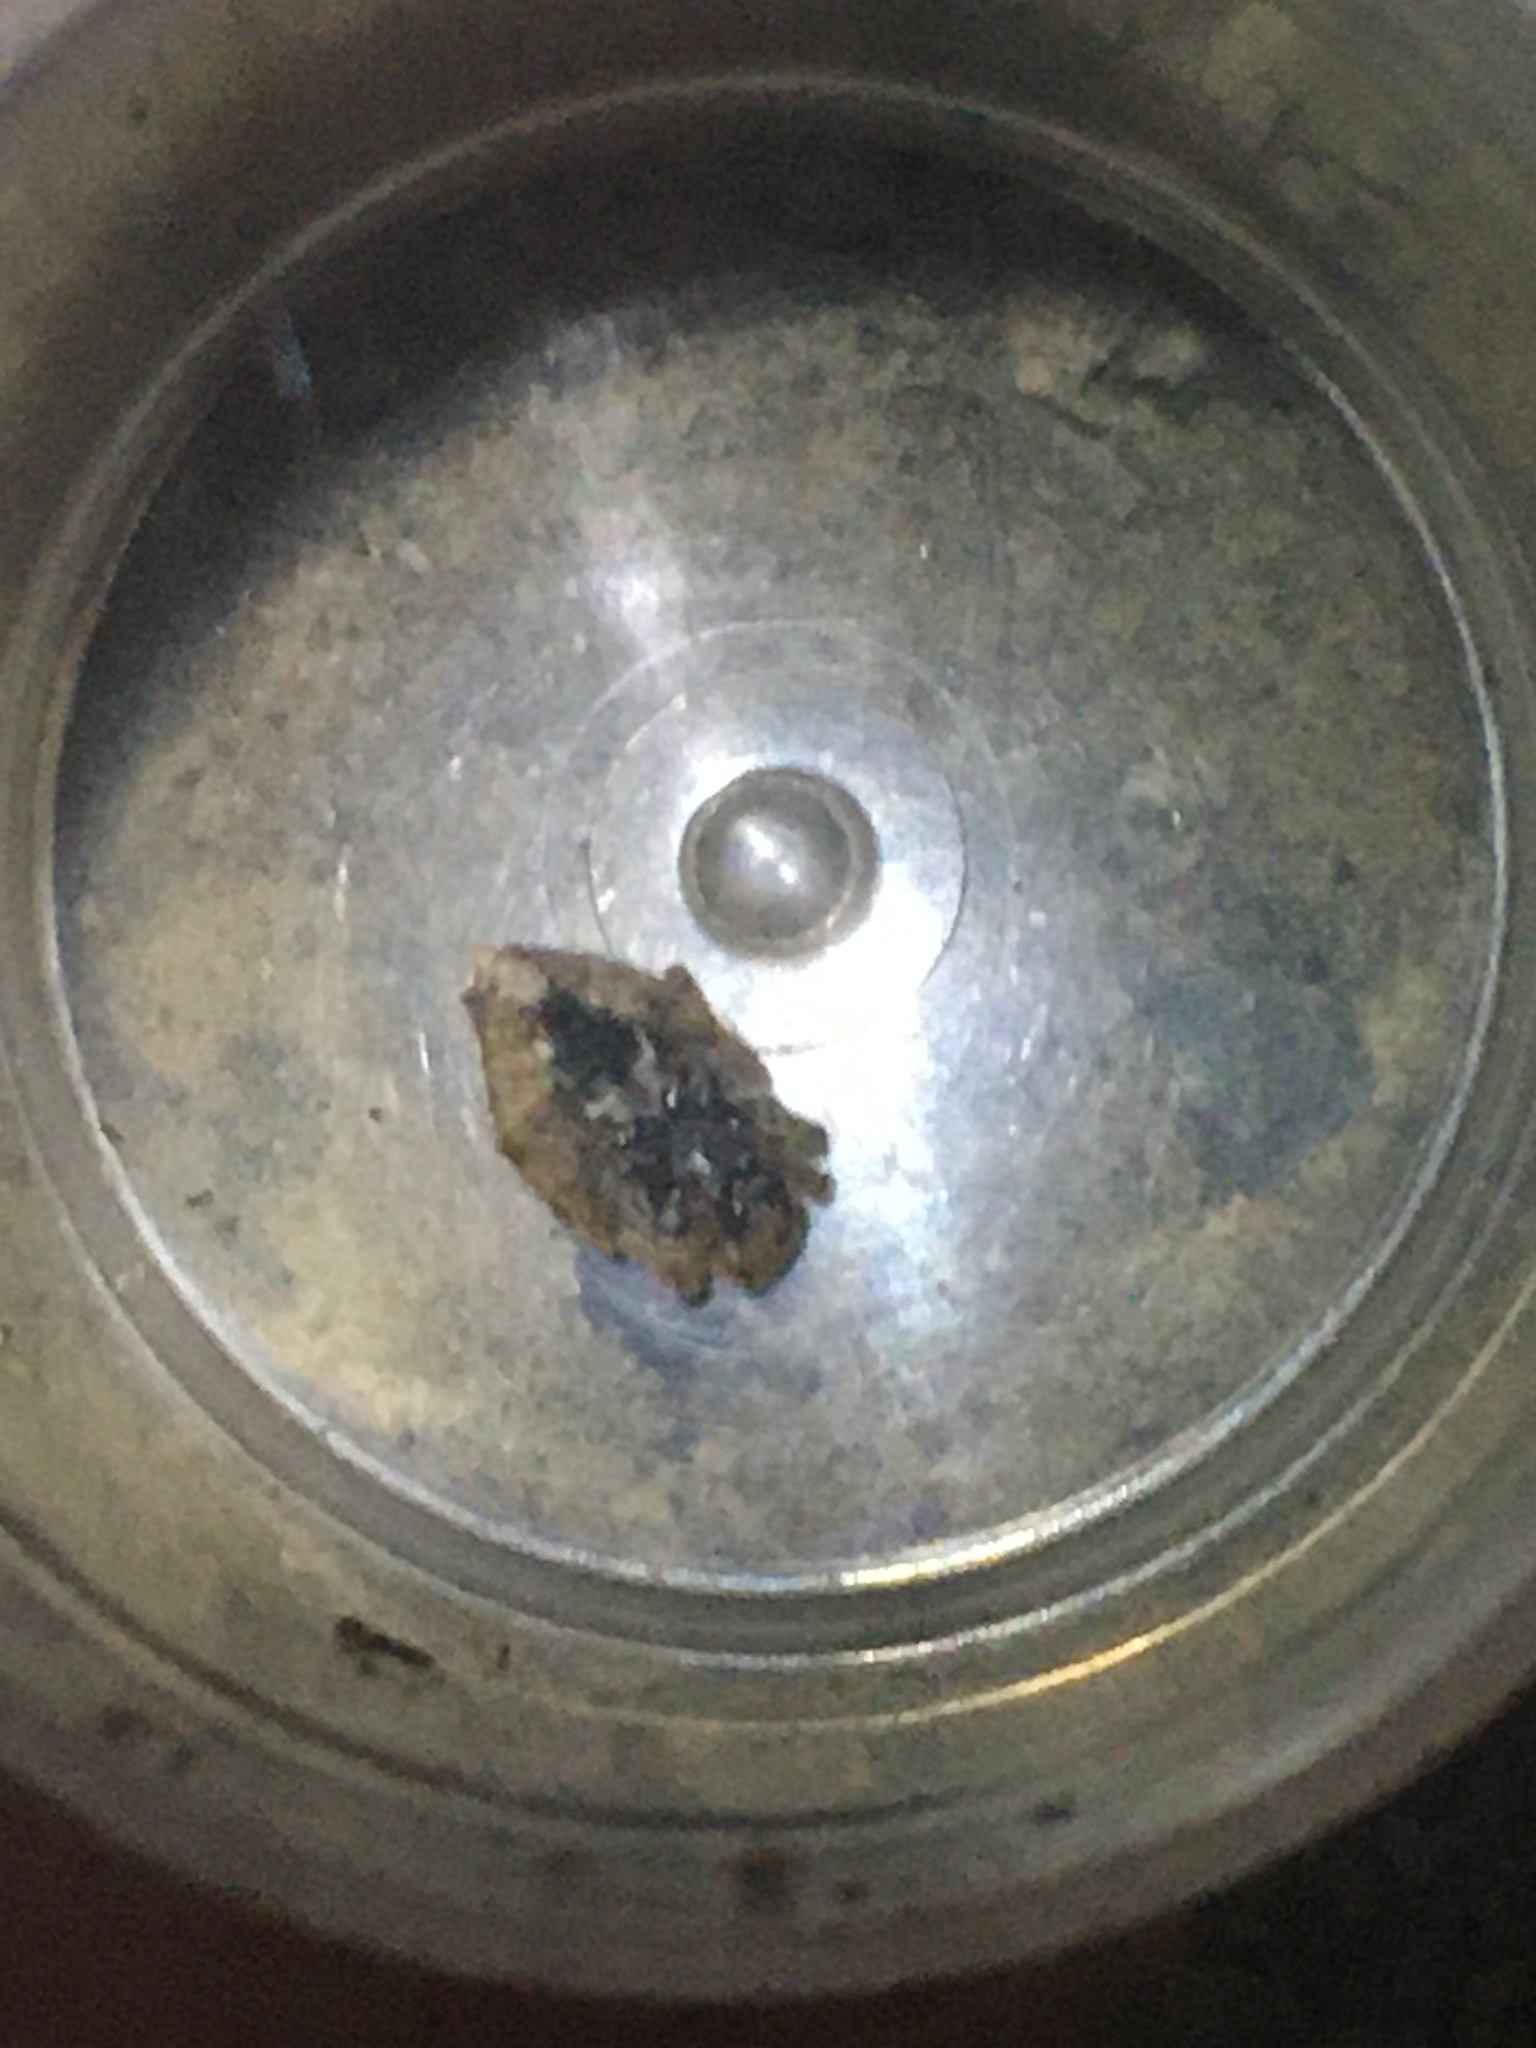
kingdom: Animalia
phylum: Arthropoda
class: Arachnida
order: Araneae
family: Araneidae
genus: Eriophora
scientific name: Eriophora pustulosa
